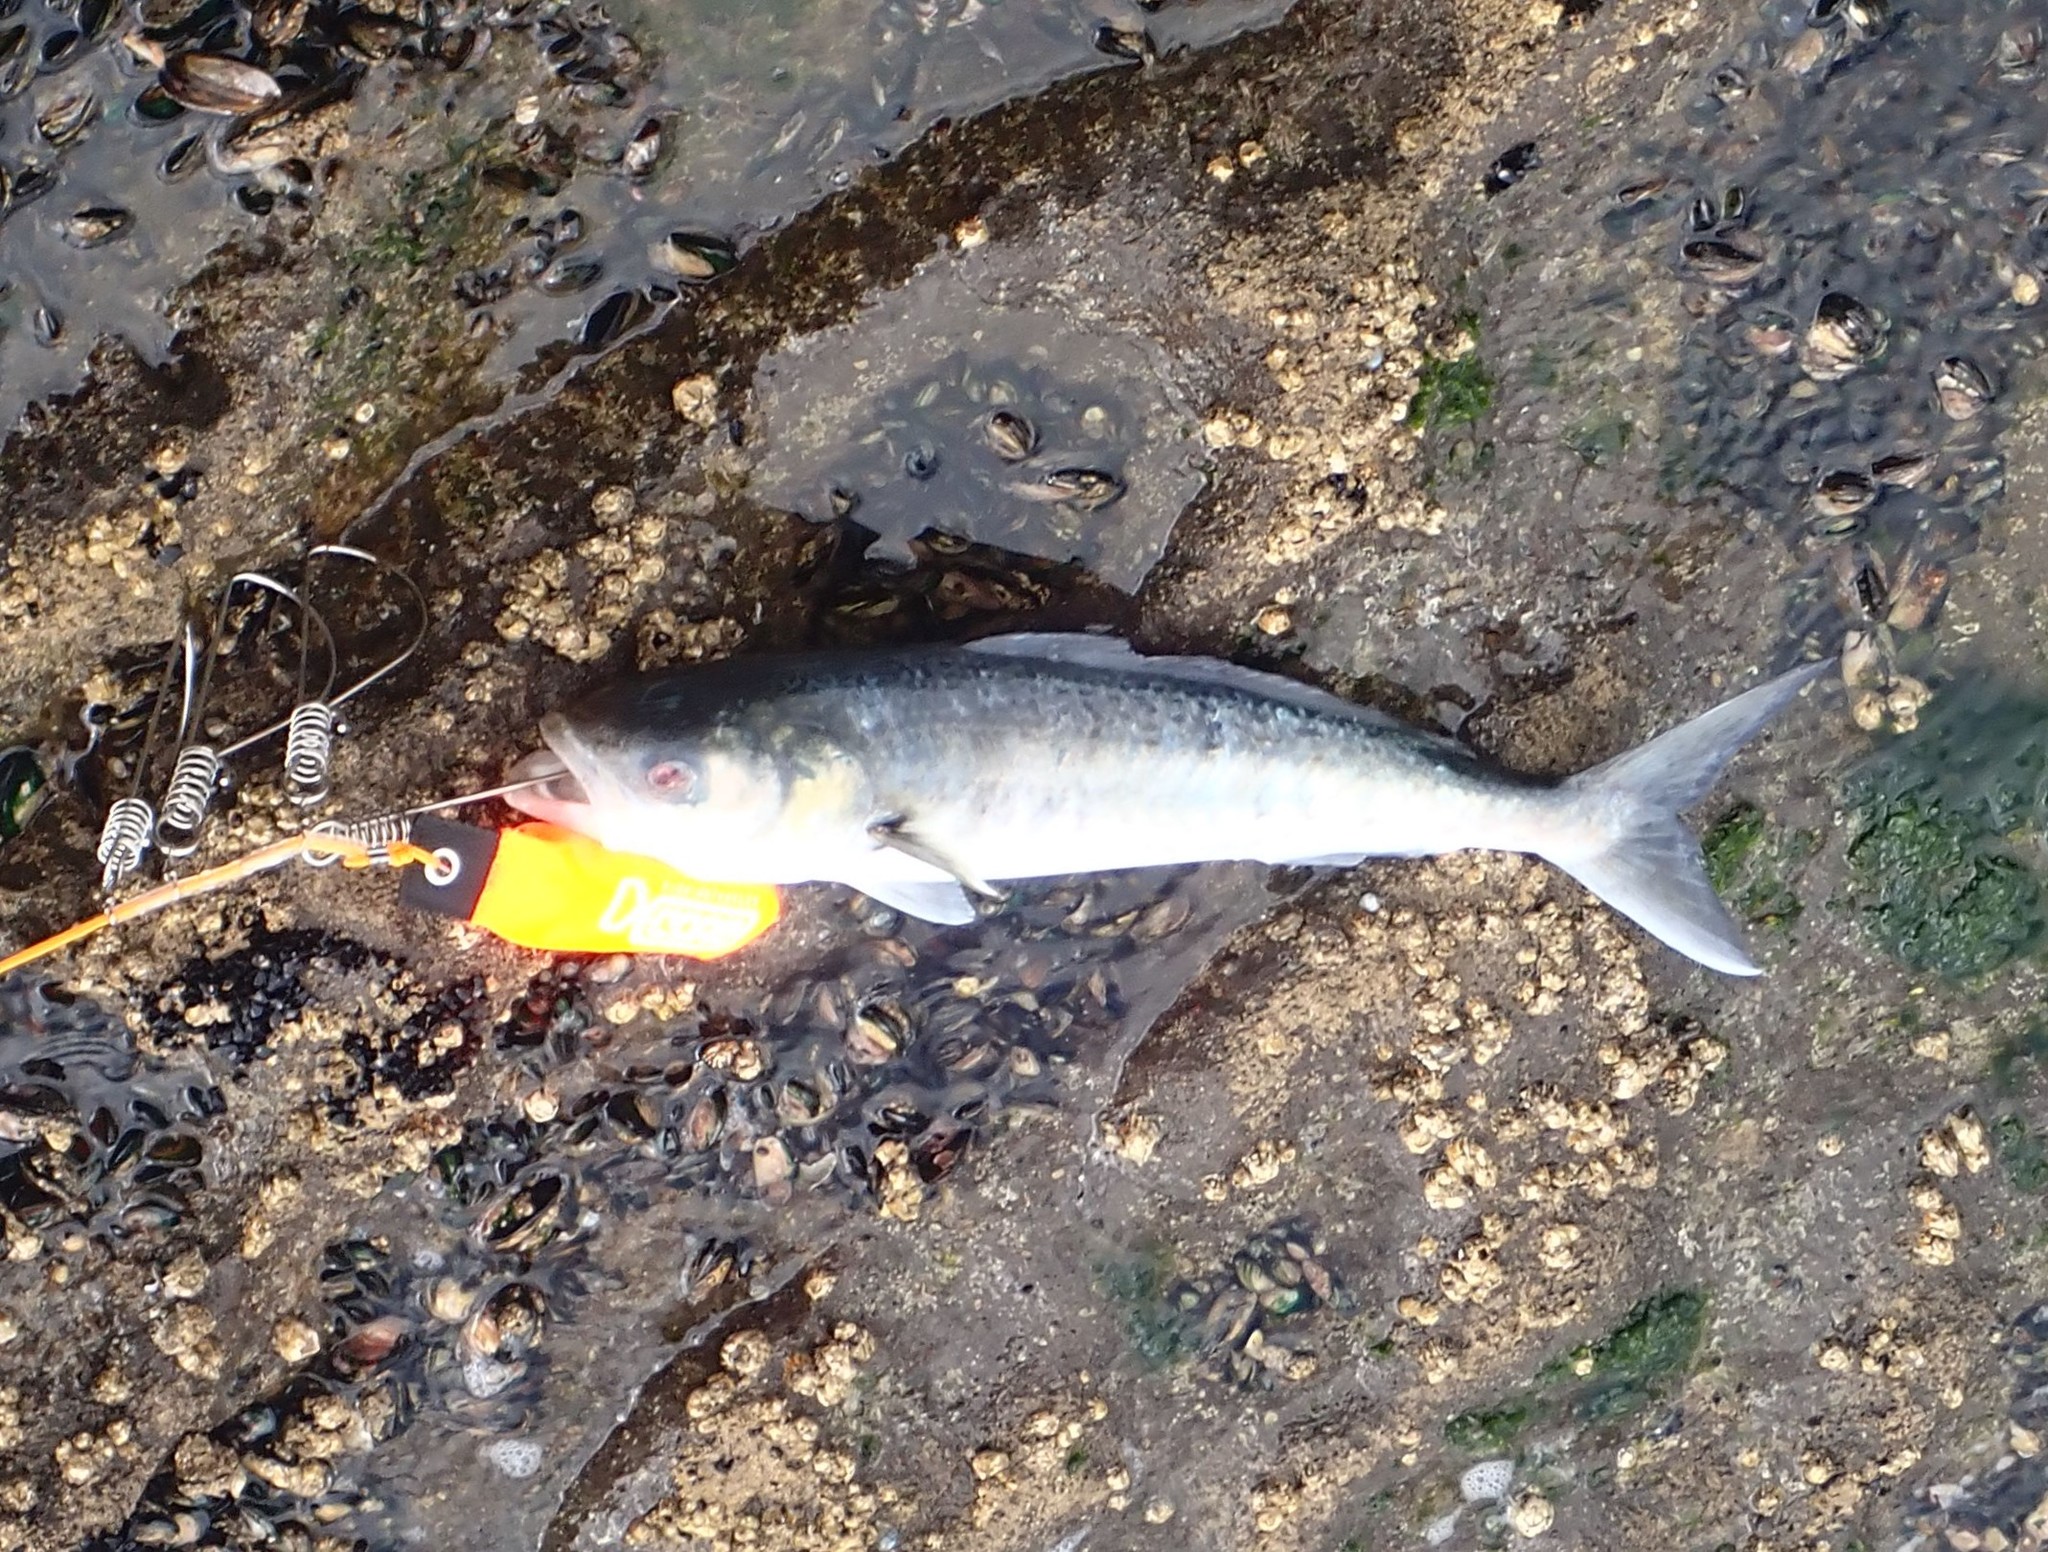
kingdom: Animalia
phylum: Chordata
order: Perciformes
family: Arripidae
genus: Arripis
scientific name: Arripis trutta
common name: Kahawai
